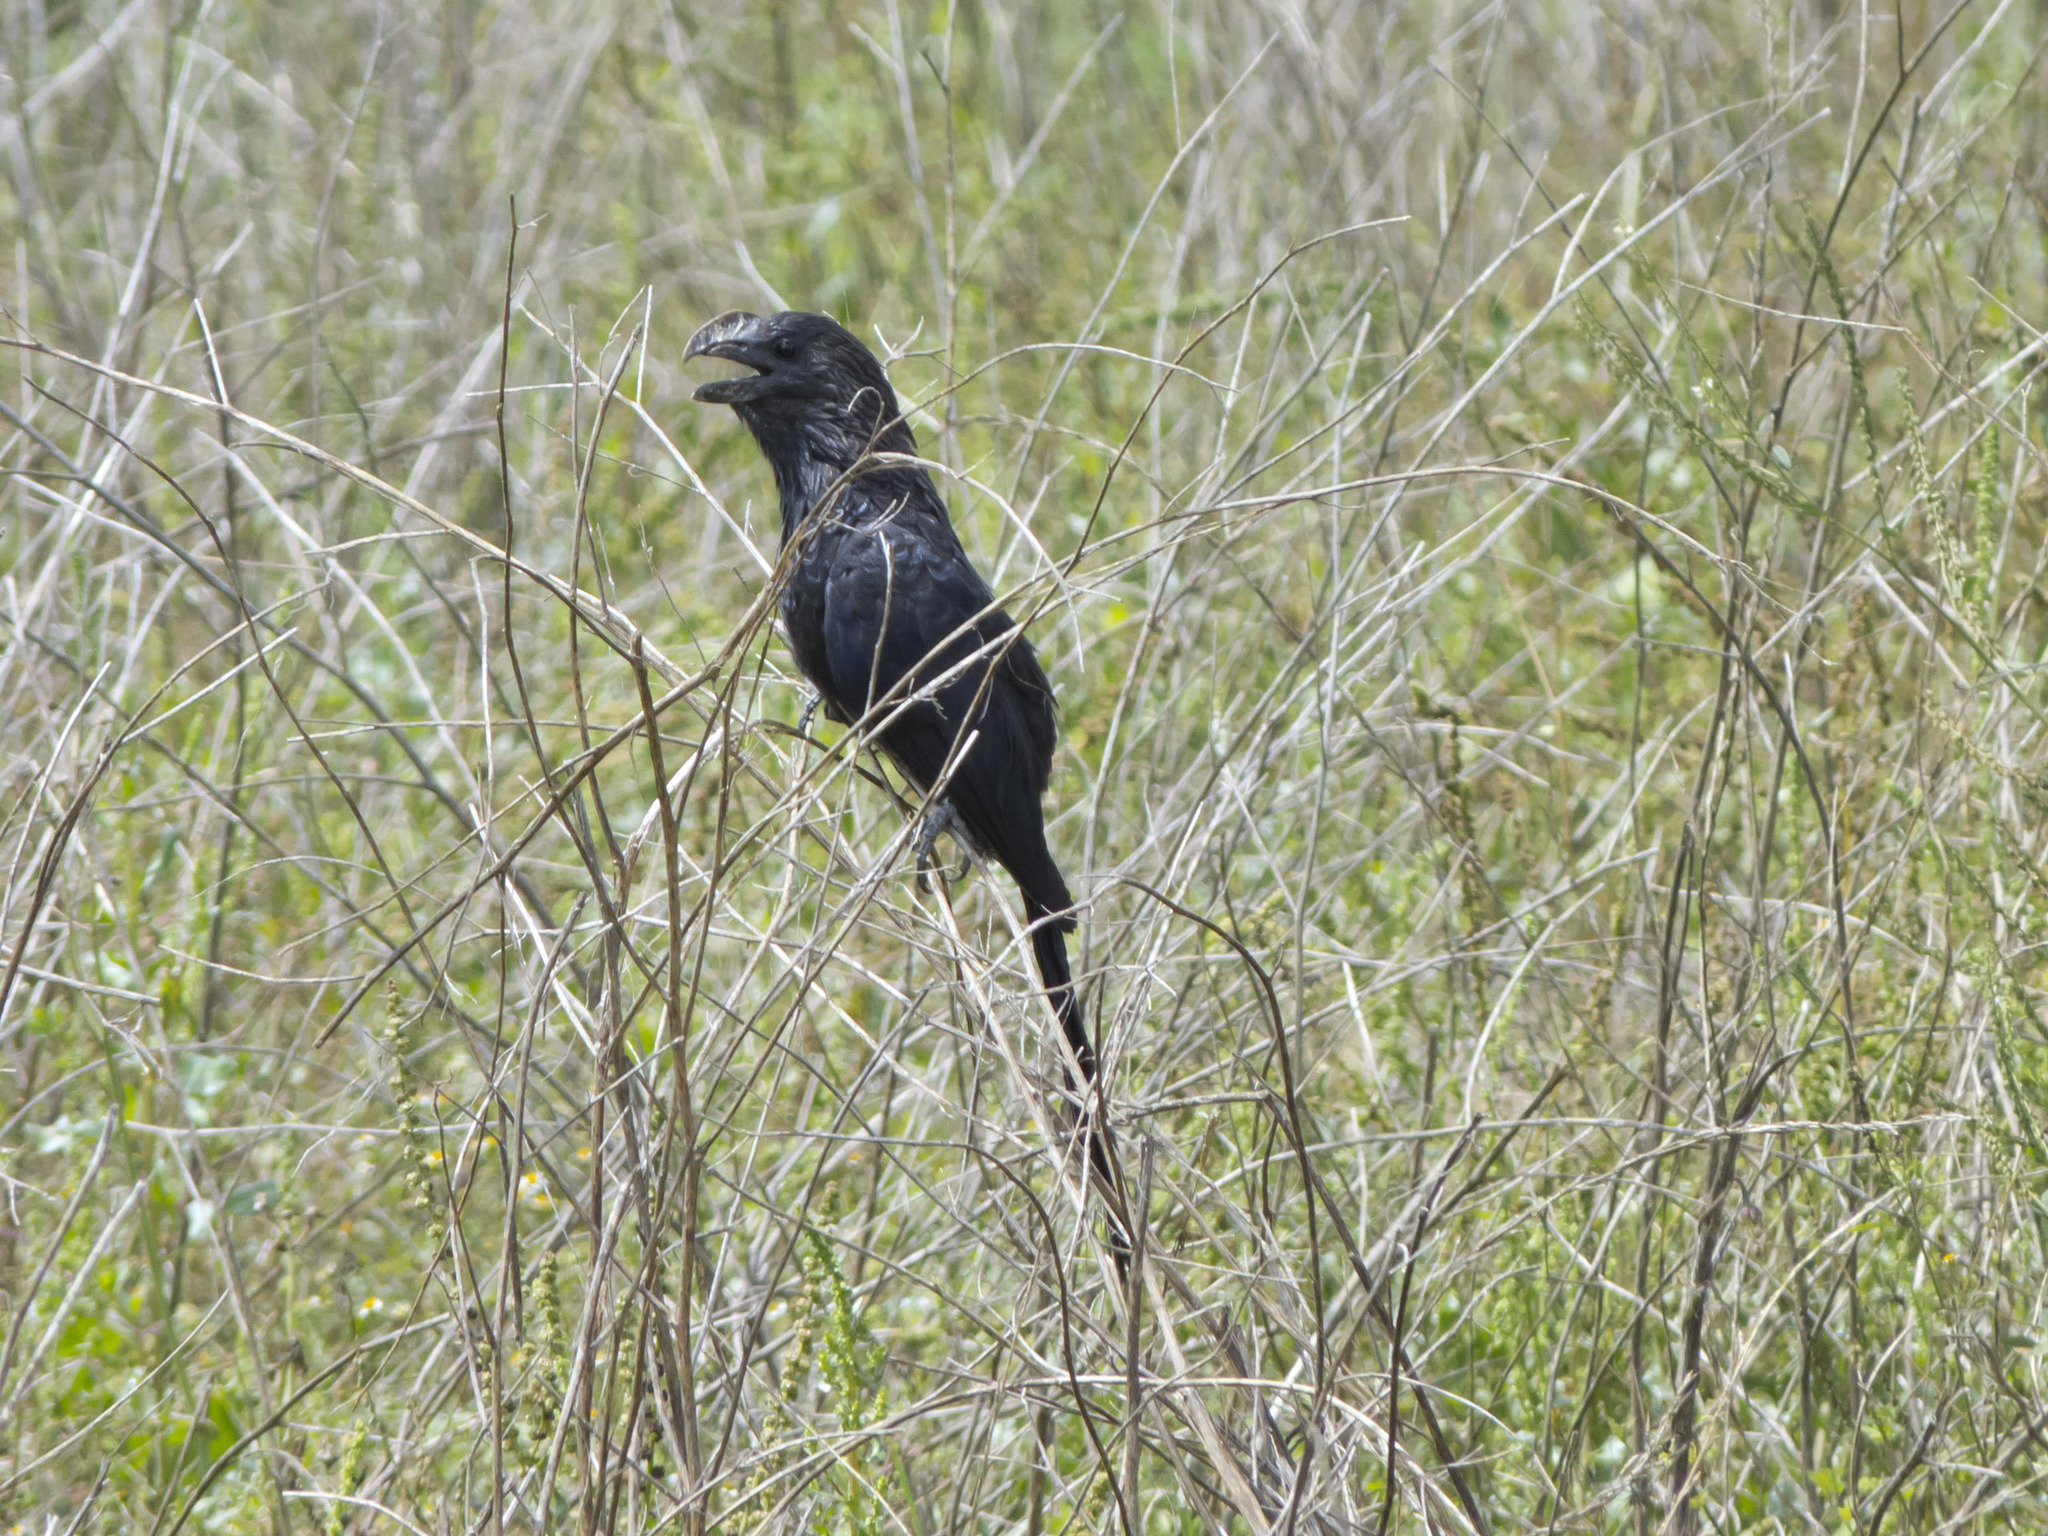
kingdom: Animalia
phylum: Chordata
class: Aves
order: Cuculiformes
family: Cuculidae
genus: Crotophaga
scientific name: Crotophaga ani
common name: Smooth-billed ani
